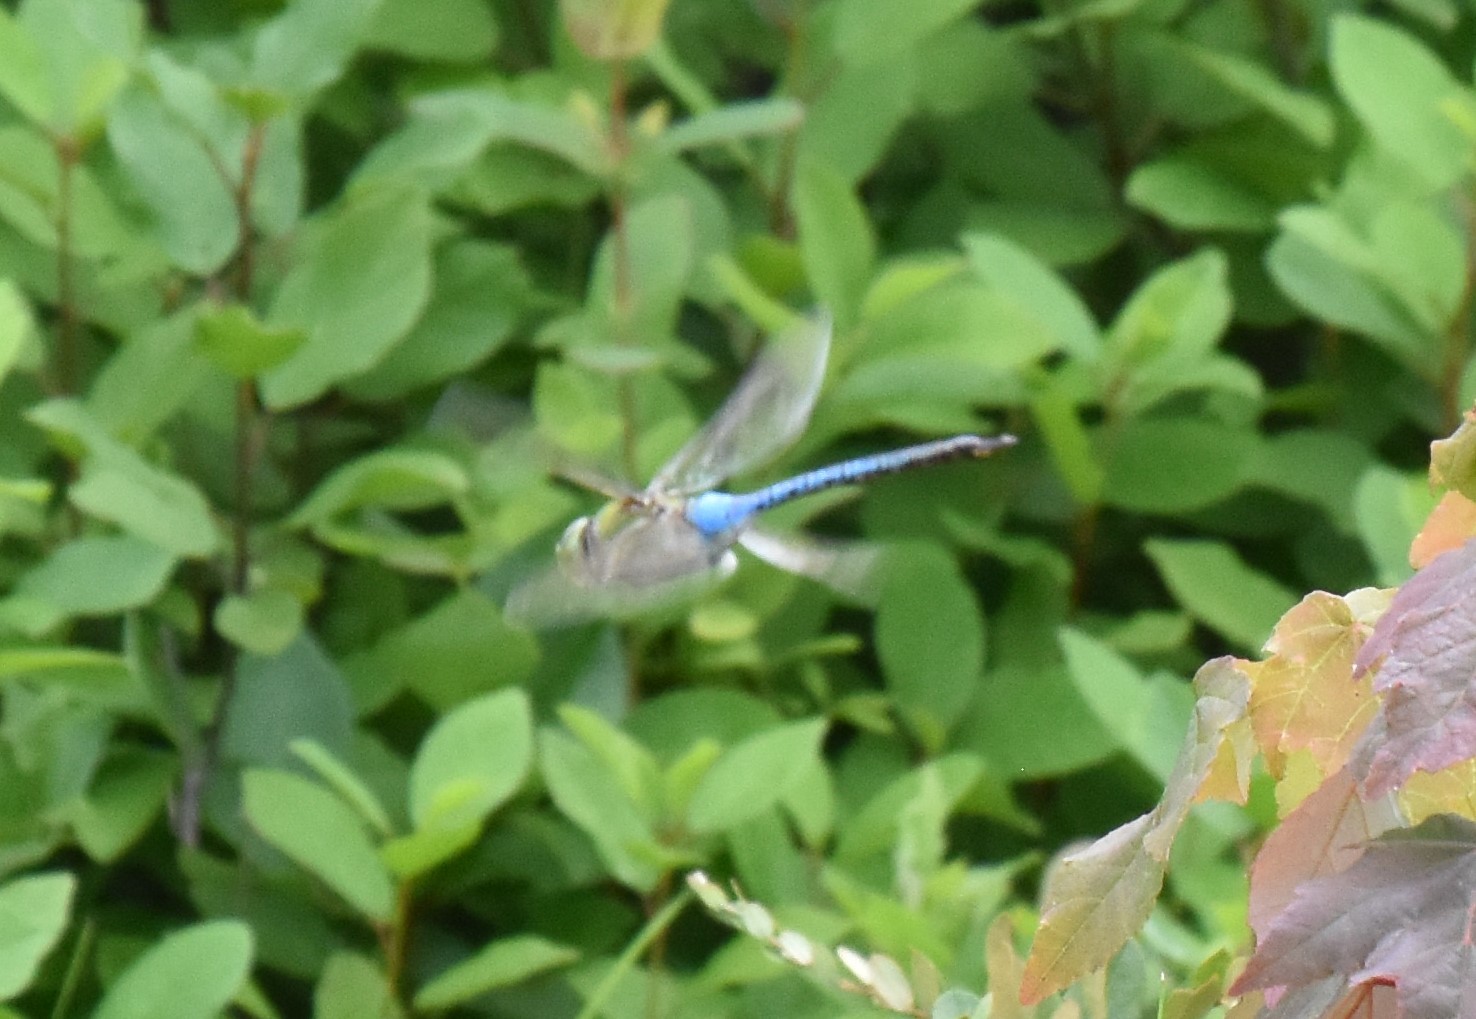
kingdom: Animalia
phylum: Arthropoda
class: Insecta
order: Odonata
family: Aeshnidae
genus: Anax
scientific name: Anax junius
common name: Common green darner
